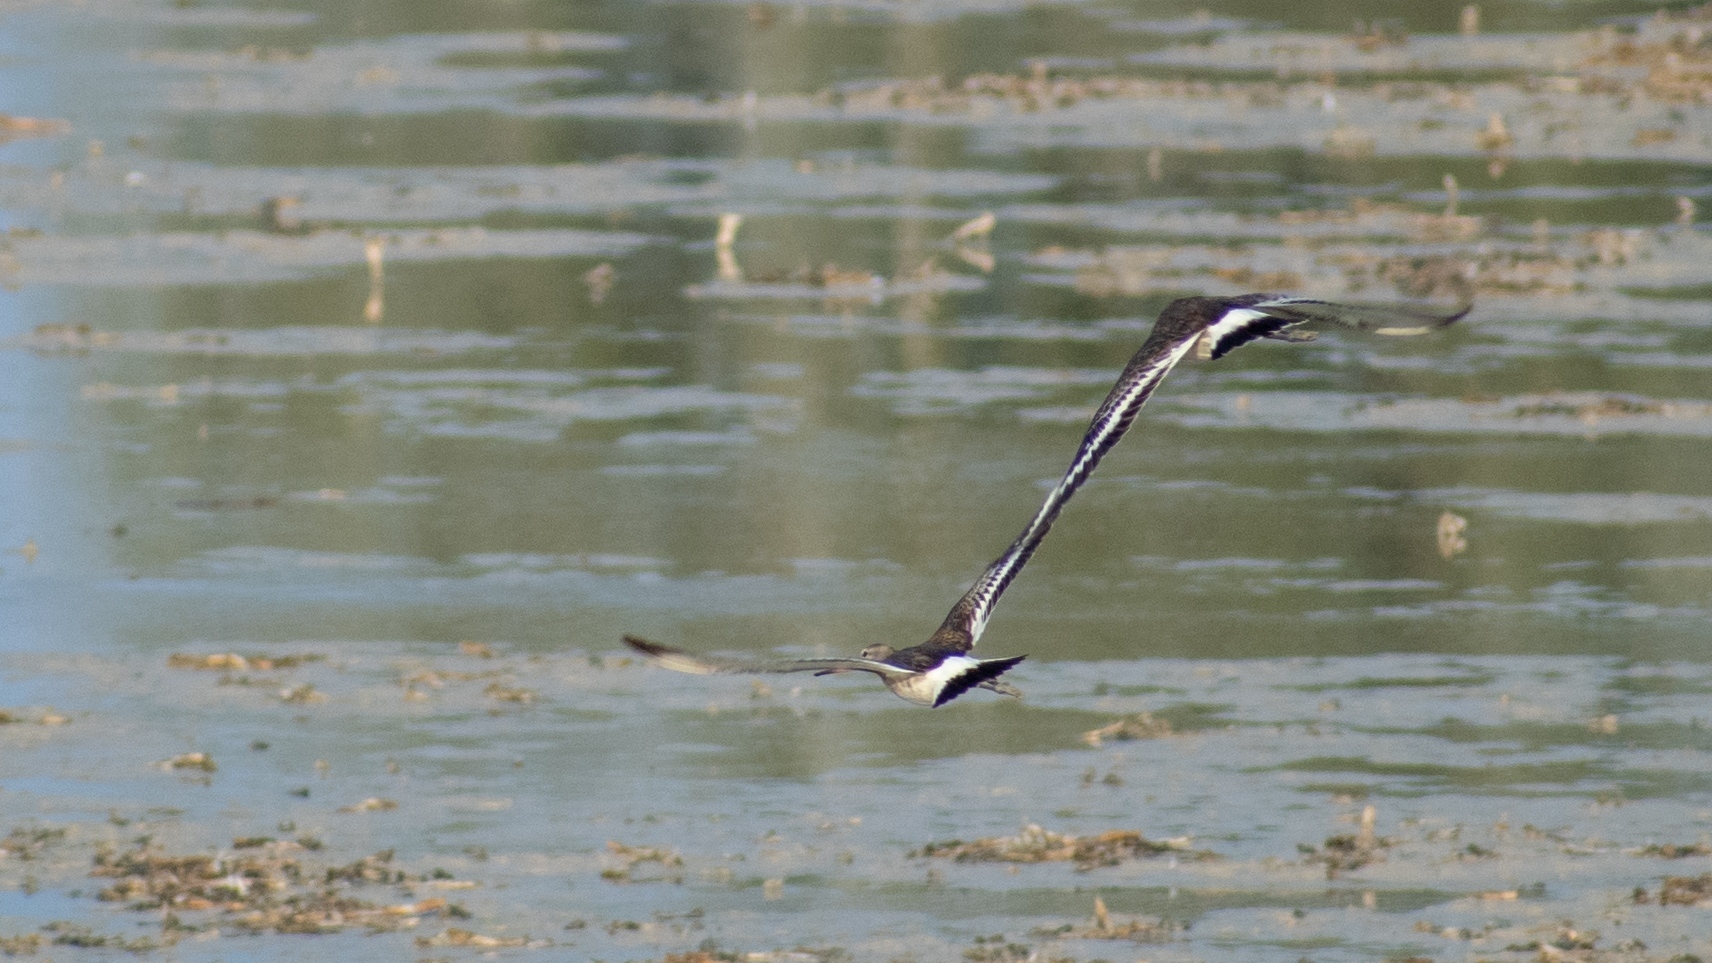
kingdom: Animalia
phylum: Chordata
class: Aves
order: Charadriiformes
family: Scolopacidae
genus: Limosa
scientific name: Limosa limosa
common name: Black-tailed godwit
